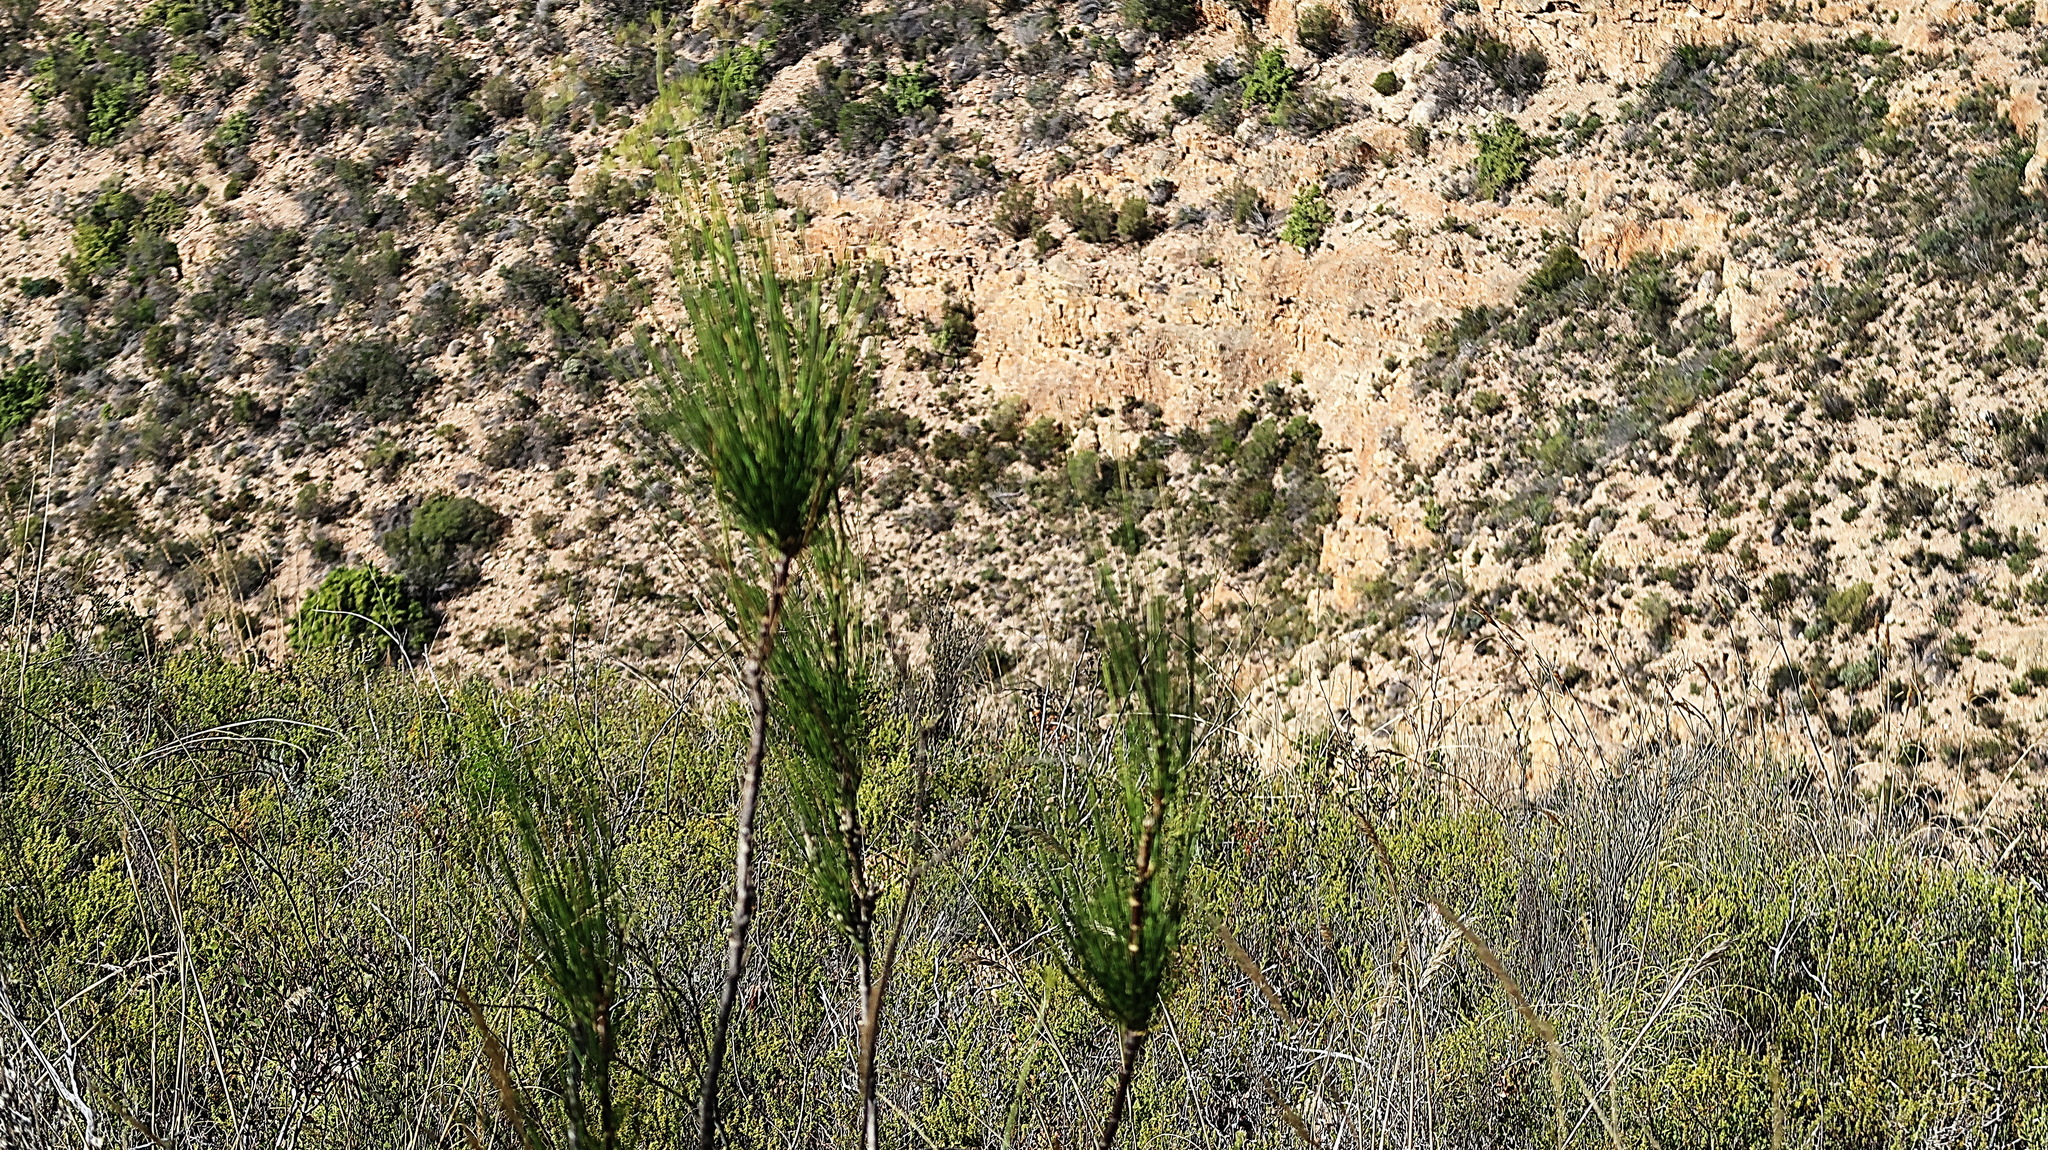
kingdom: Plantae
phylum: Tracheophyta
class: Magnoliopsida
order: Apiales
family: Apiaceae
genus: Anginon
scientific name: Anginon difforme
